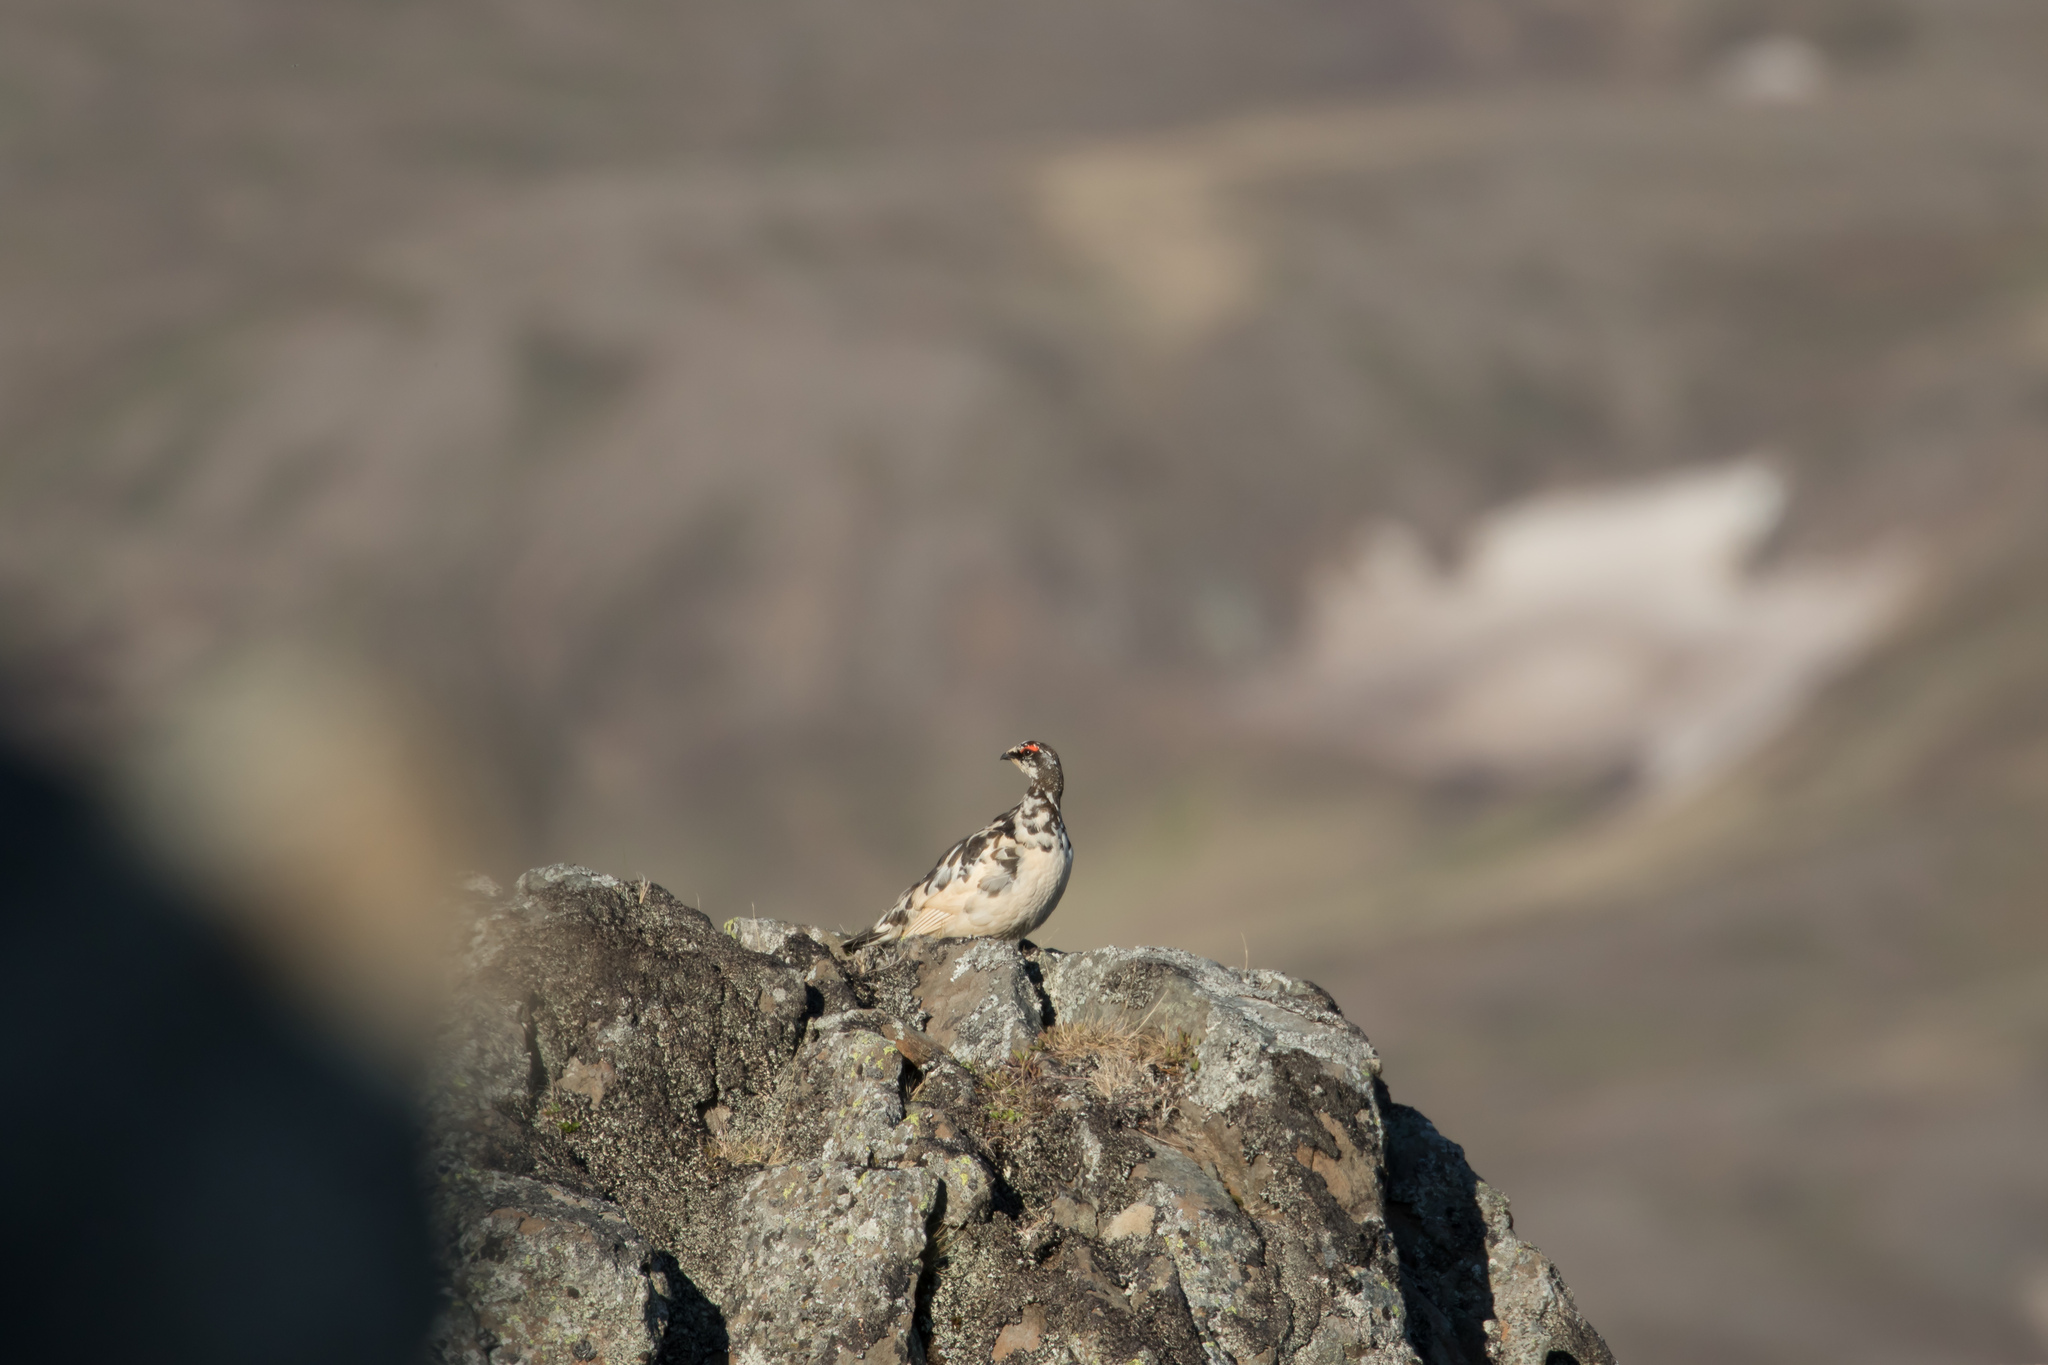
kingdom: Animalia
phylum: Chordata
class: Aves
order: Galliformes
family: Phasianidae
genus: Lagopus
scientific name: Lagopus muta
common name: Rock ptarmigan
